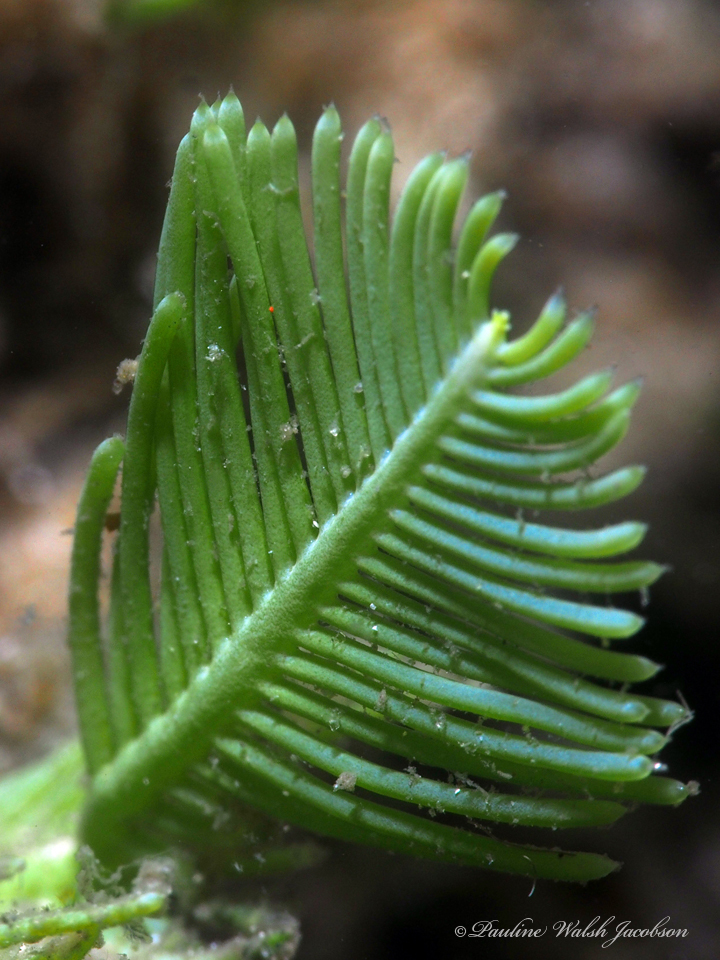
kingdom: Plantae
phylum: Chlorophyta
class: Ulvophyceae
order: Bryopsidales
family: Caulerpaceae
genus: Caulerpa
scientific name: Caulerpa sertularioides
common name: Green feather algae
